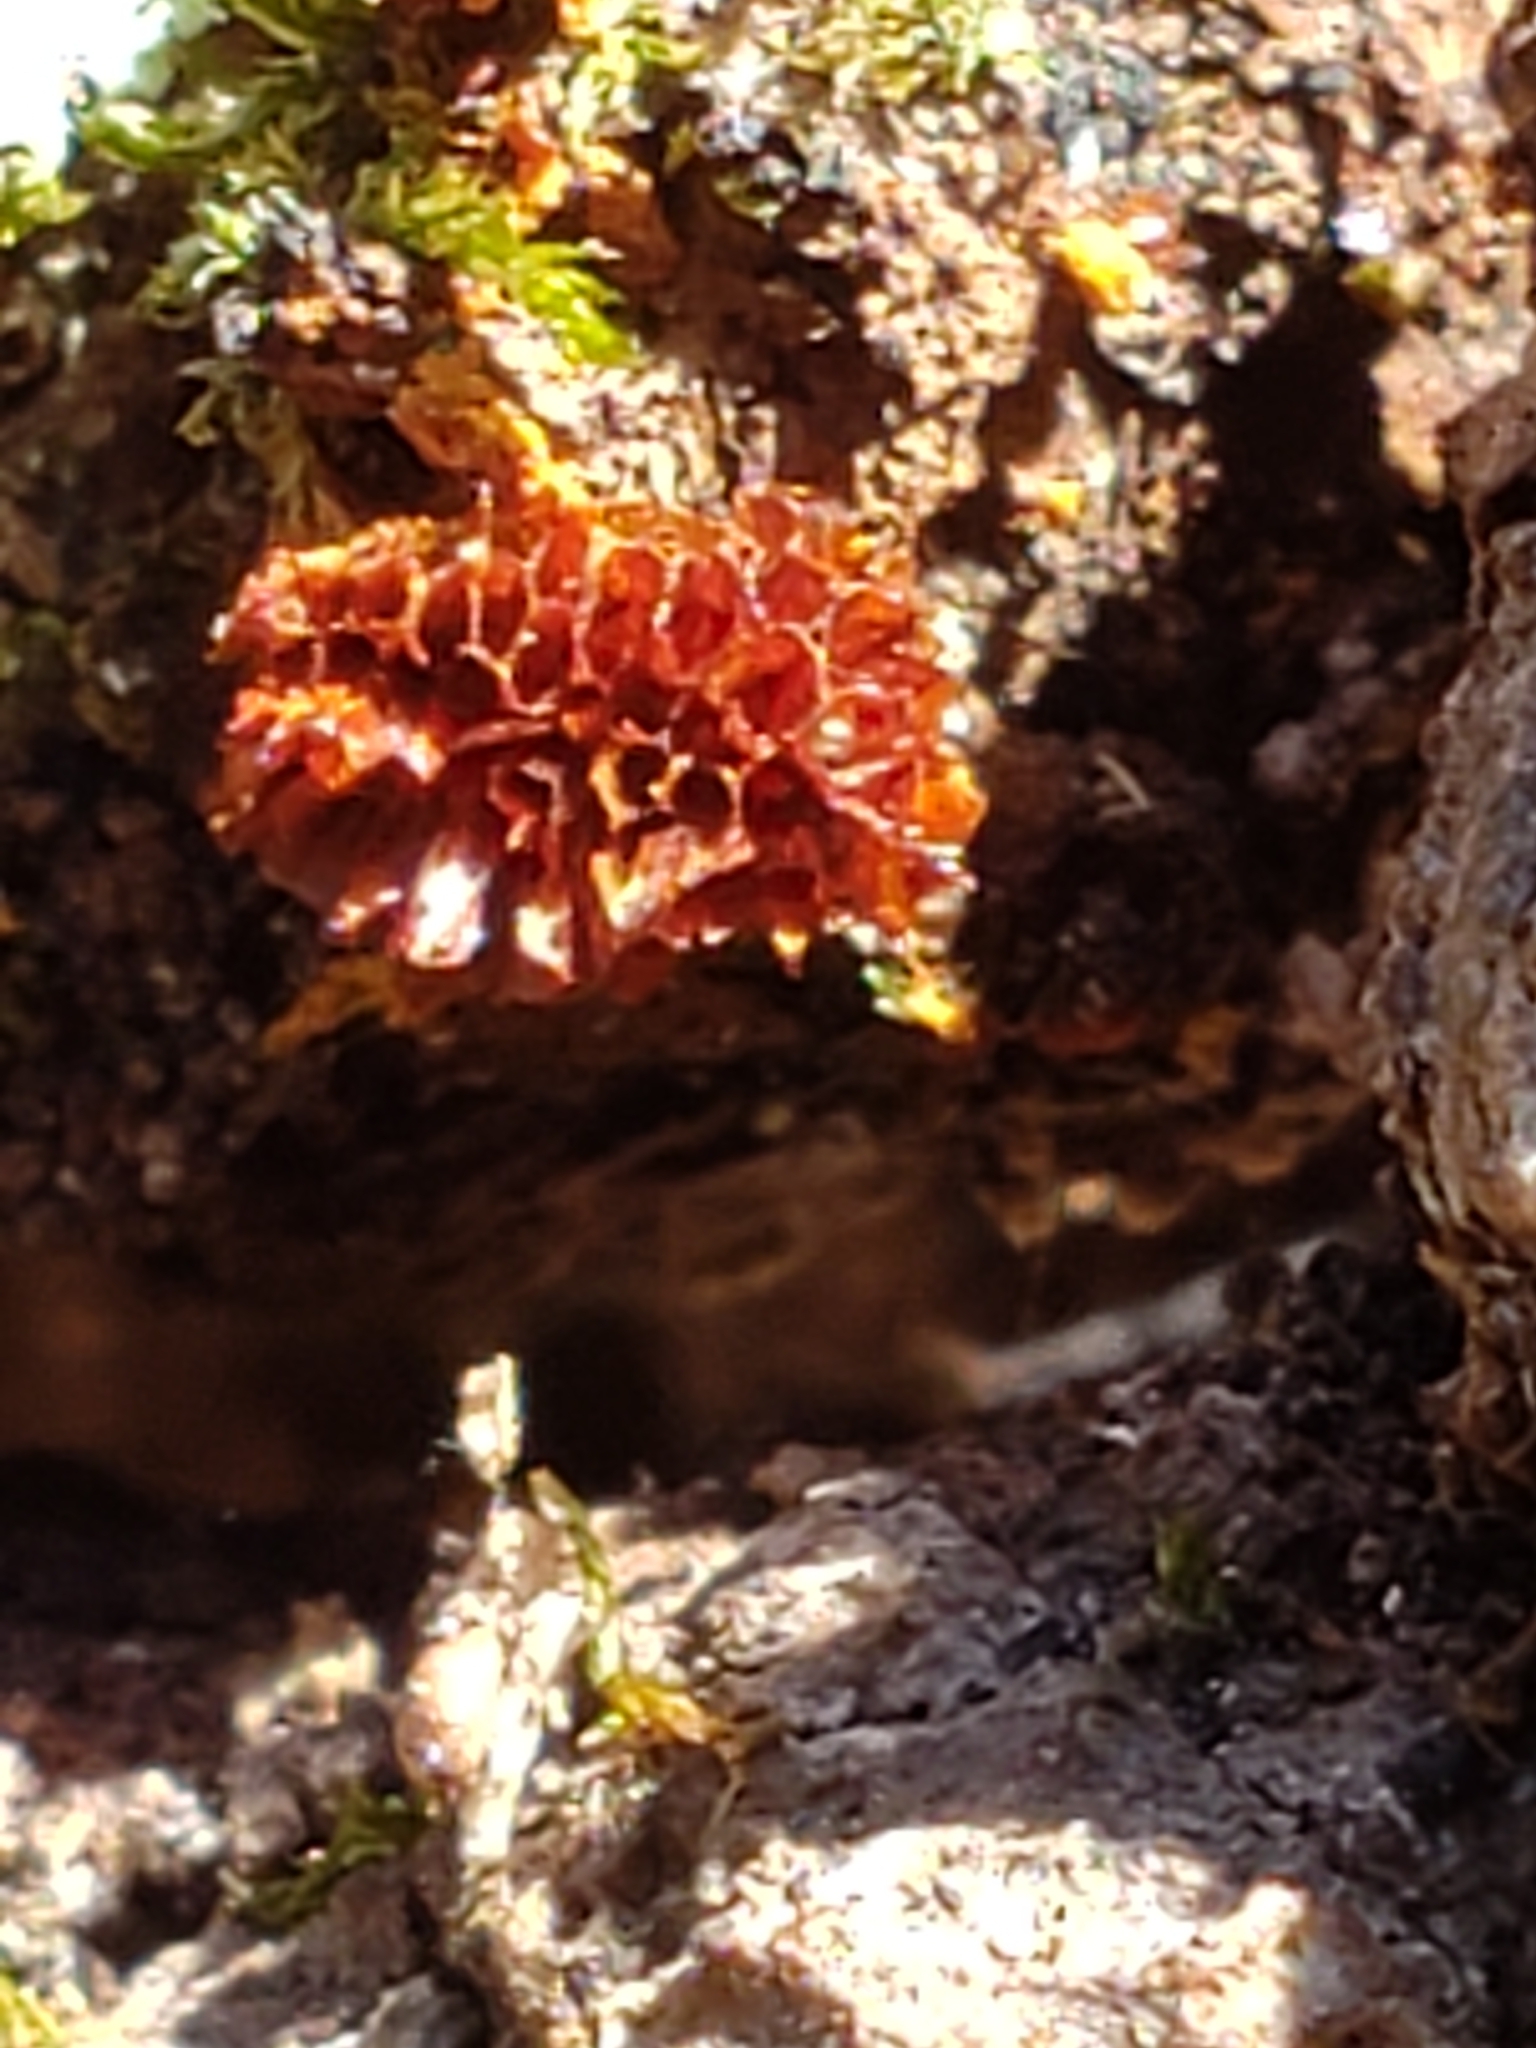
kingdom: Protozoa
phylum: Mycetozoa
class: Myxomycetes
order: Trichiales
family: Trichiaceae
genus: Metatrichia
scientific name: Metatrichia vesparia
